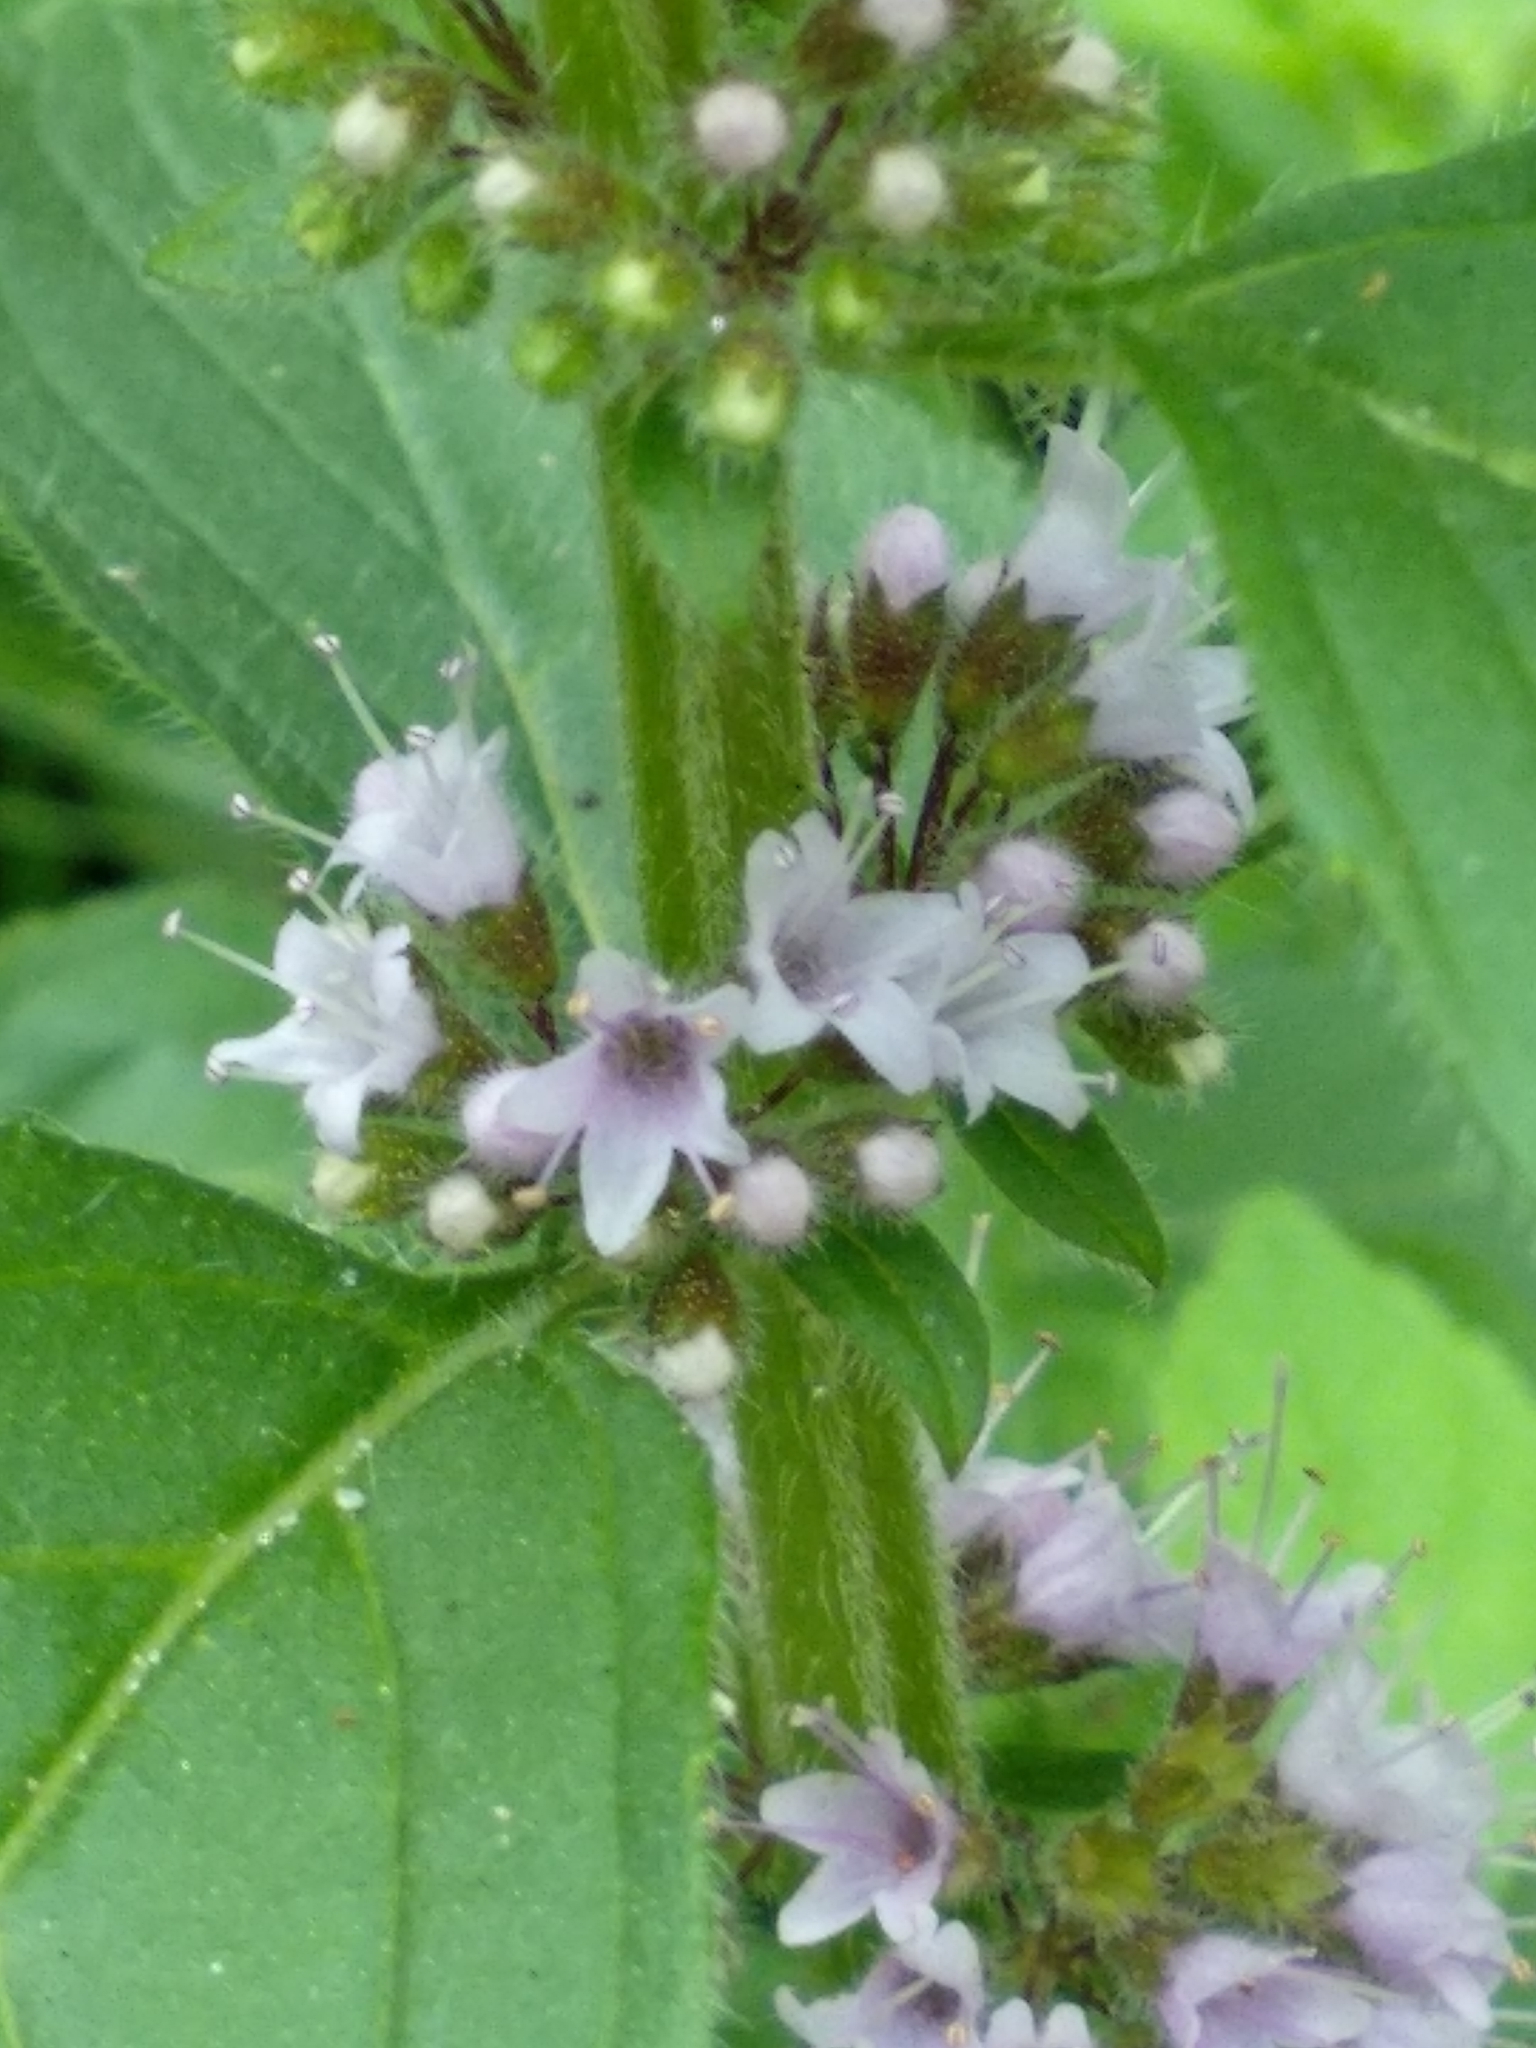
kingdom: Plantae
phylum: Tracheophyta
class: Magnoliopsida
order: Lamiales
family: Lamiaceae
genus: Mentha
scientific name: Mentha arvensis
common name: Corn mint
